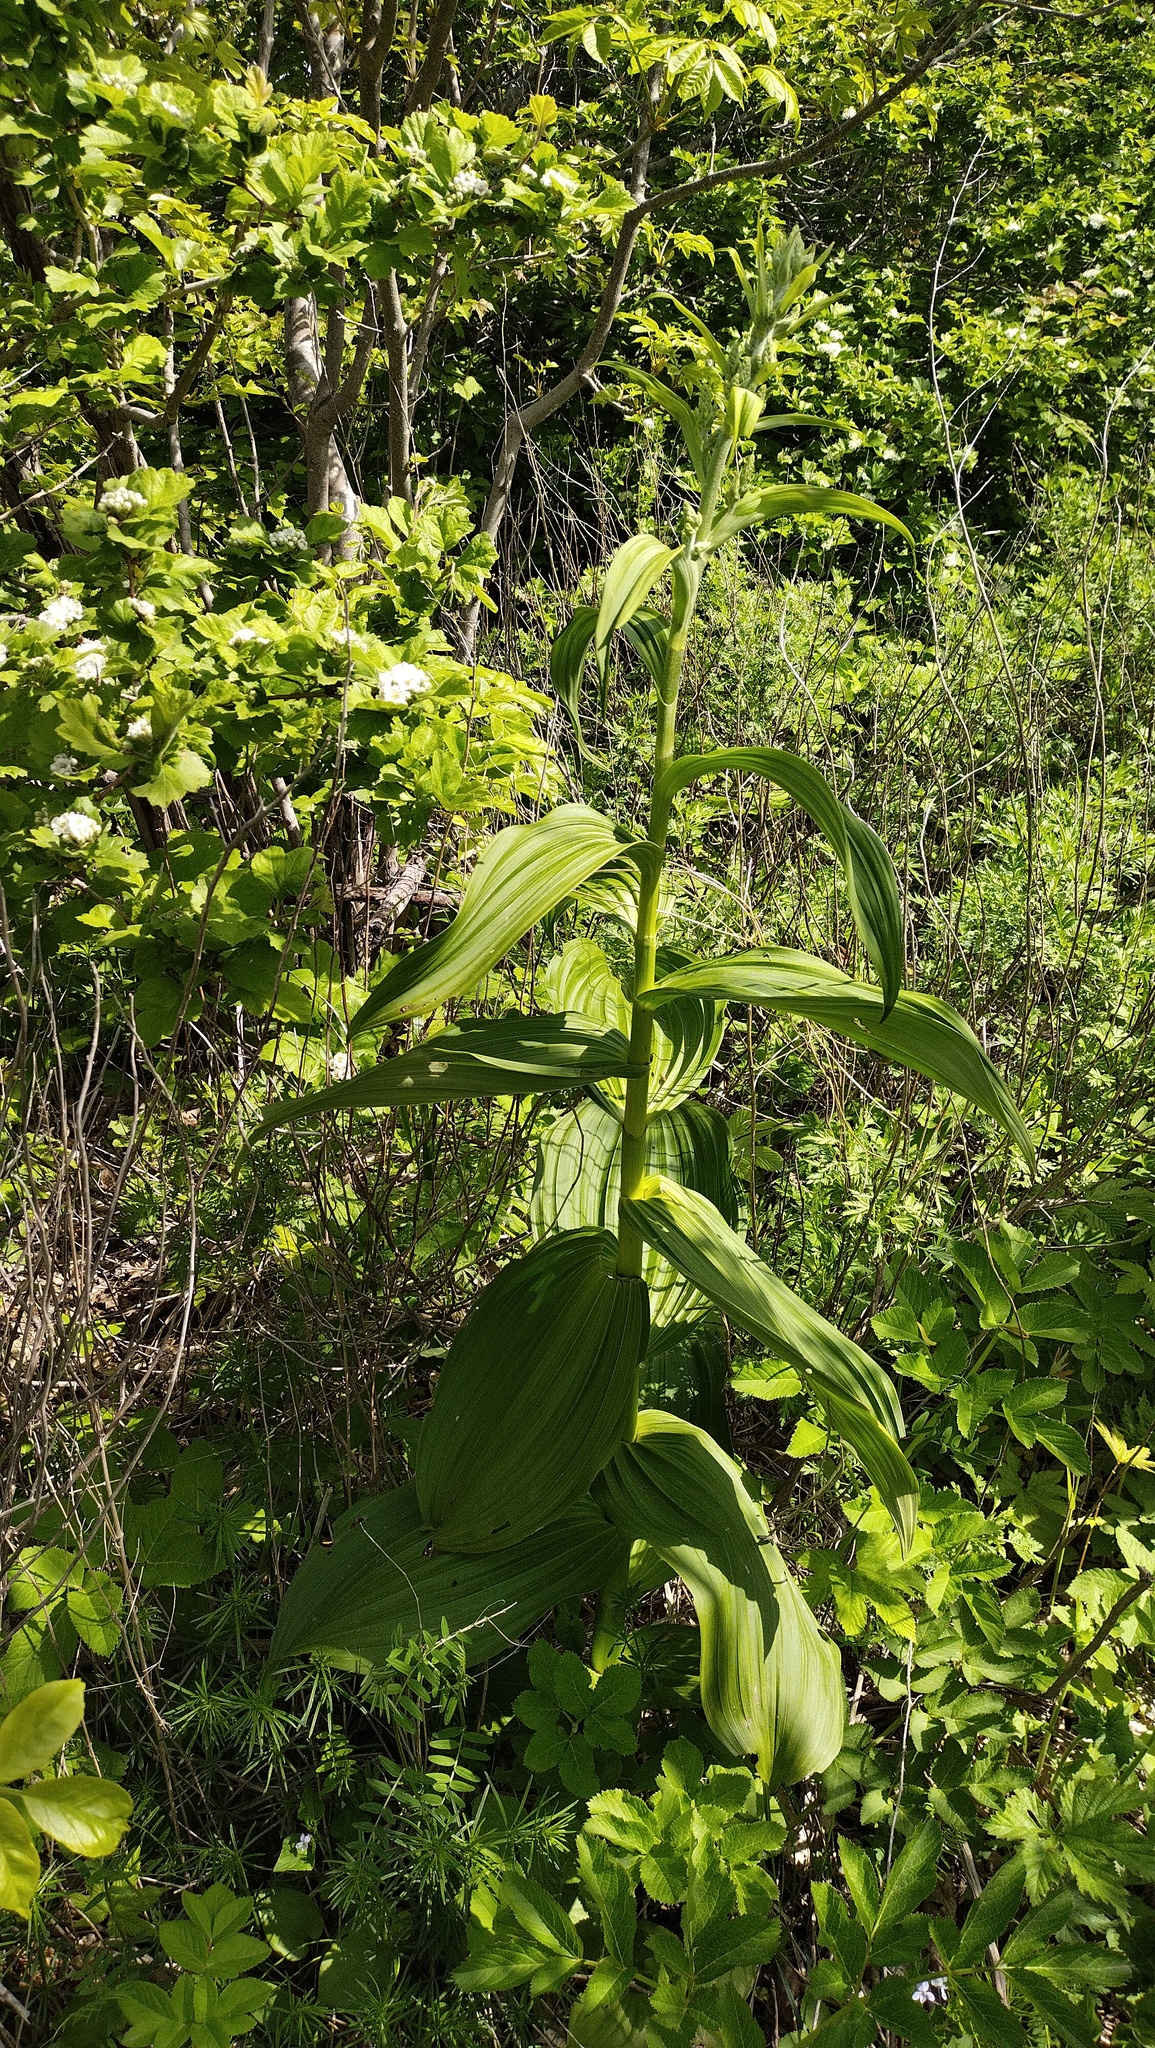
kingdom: Plantae
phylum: Tracheophyta
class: Liliopsida
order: Liliales
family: Melanthiaceae
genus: Veratrum
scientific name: Veratrum dahuricum
